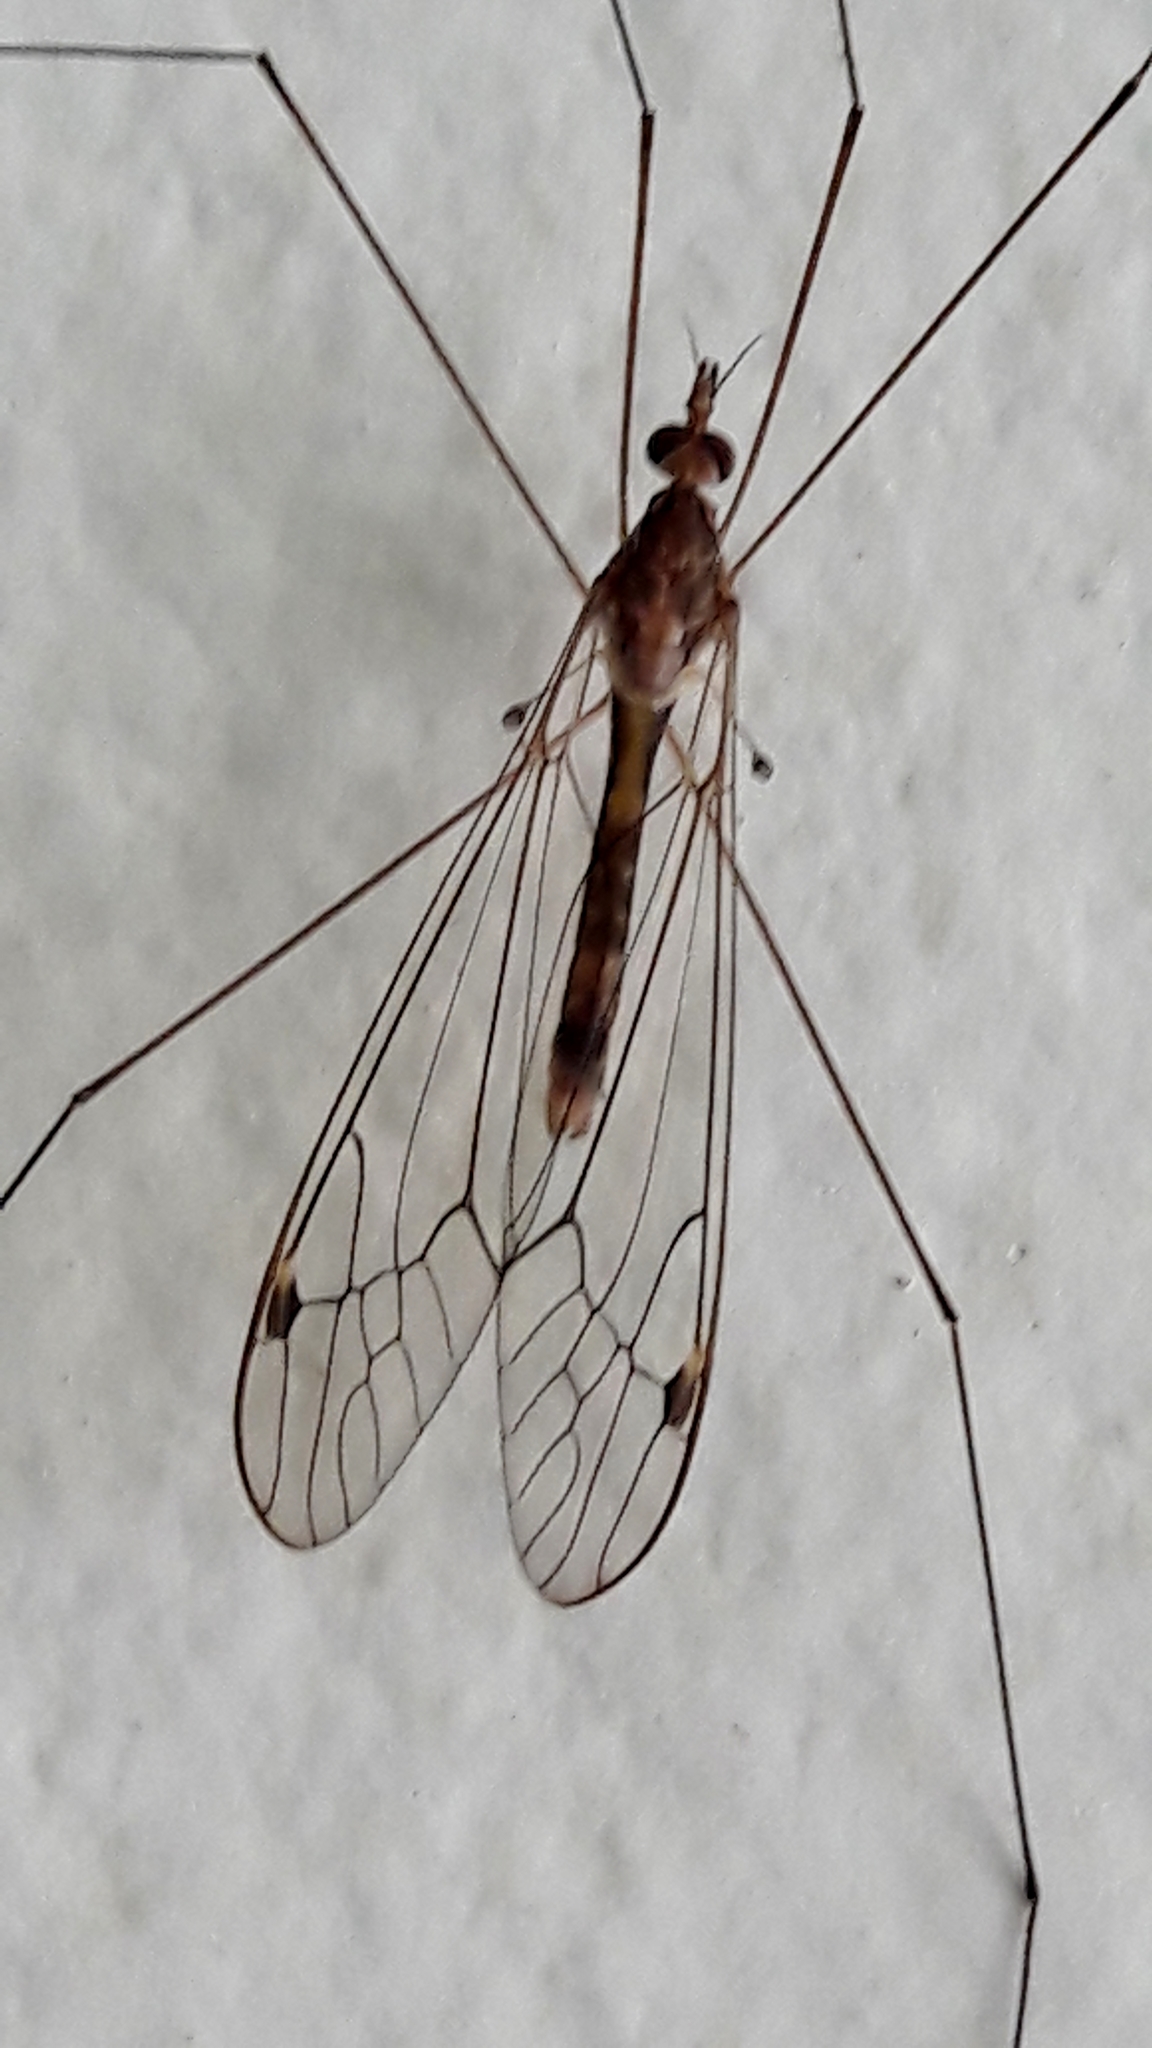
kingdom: Animalia
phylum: Arthropoda
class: Insecta
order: Diptera
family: Tipulidae
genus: Maekistocera
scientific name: Maekistocera longipennis
